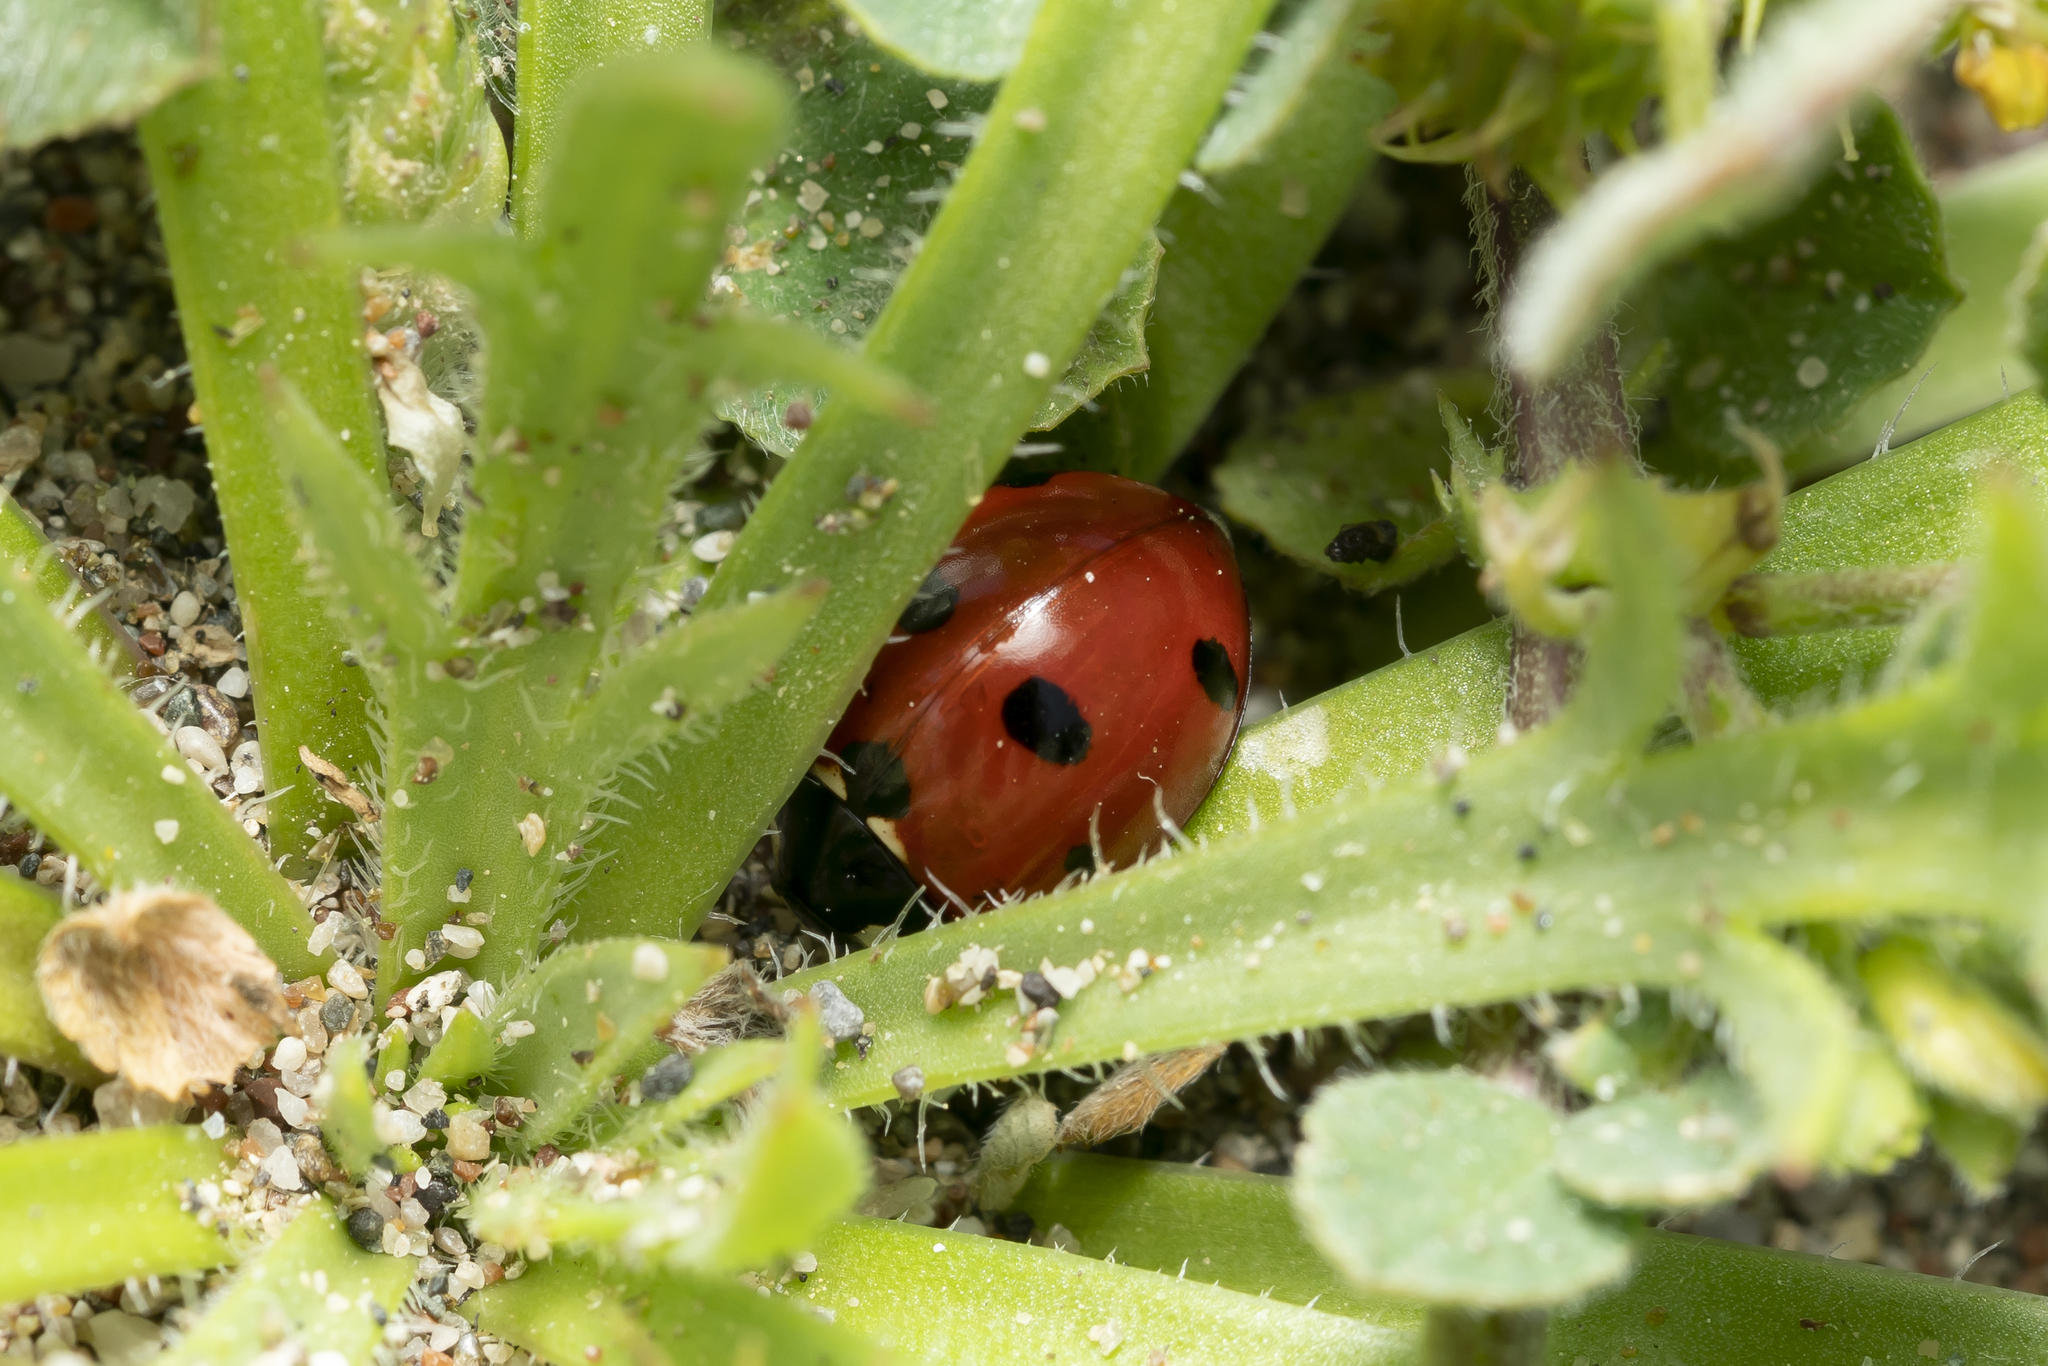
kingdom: Animalia
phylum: Arthropoda
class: Insecta
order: Coleoptera
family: Coccinellidae
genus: Coccinella
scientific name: Coccinella septempunctata
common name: Sevenspotted lady beetle
